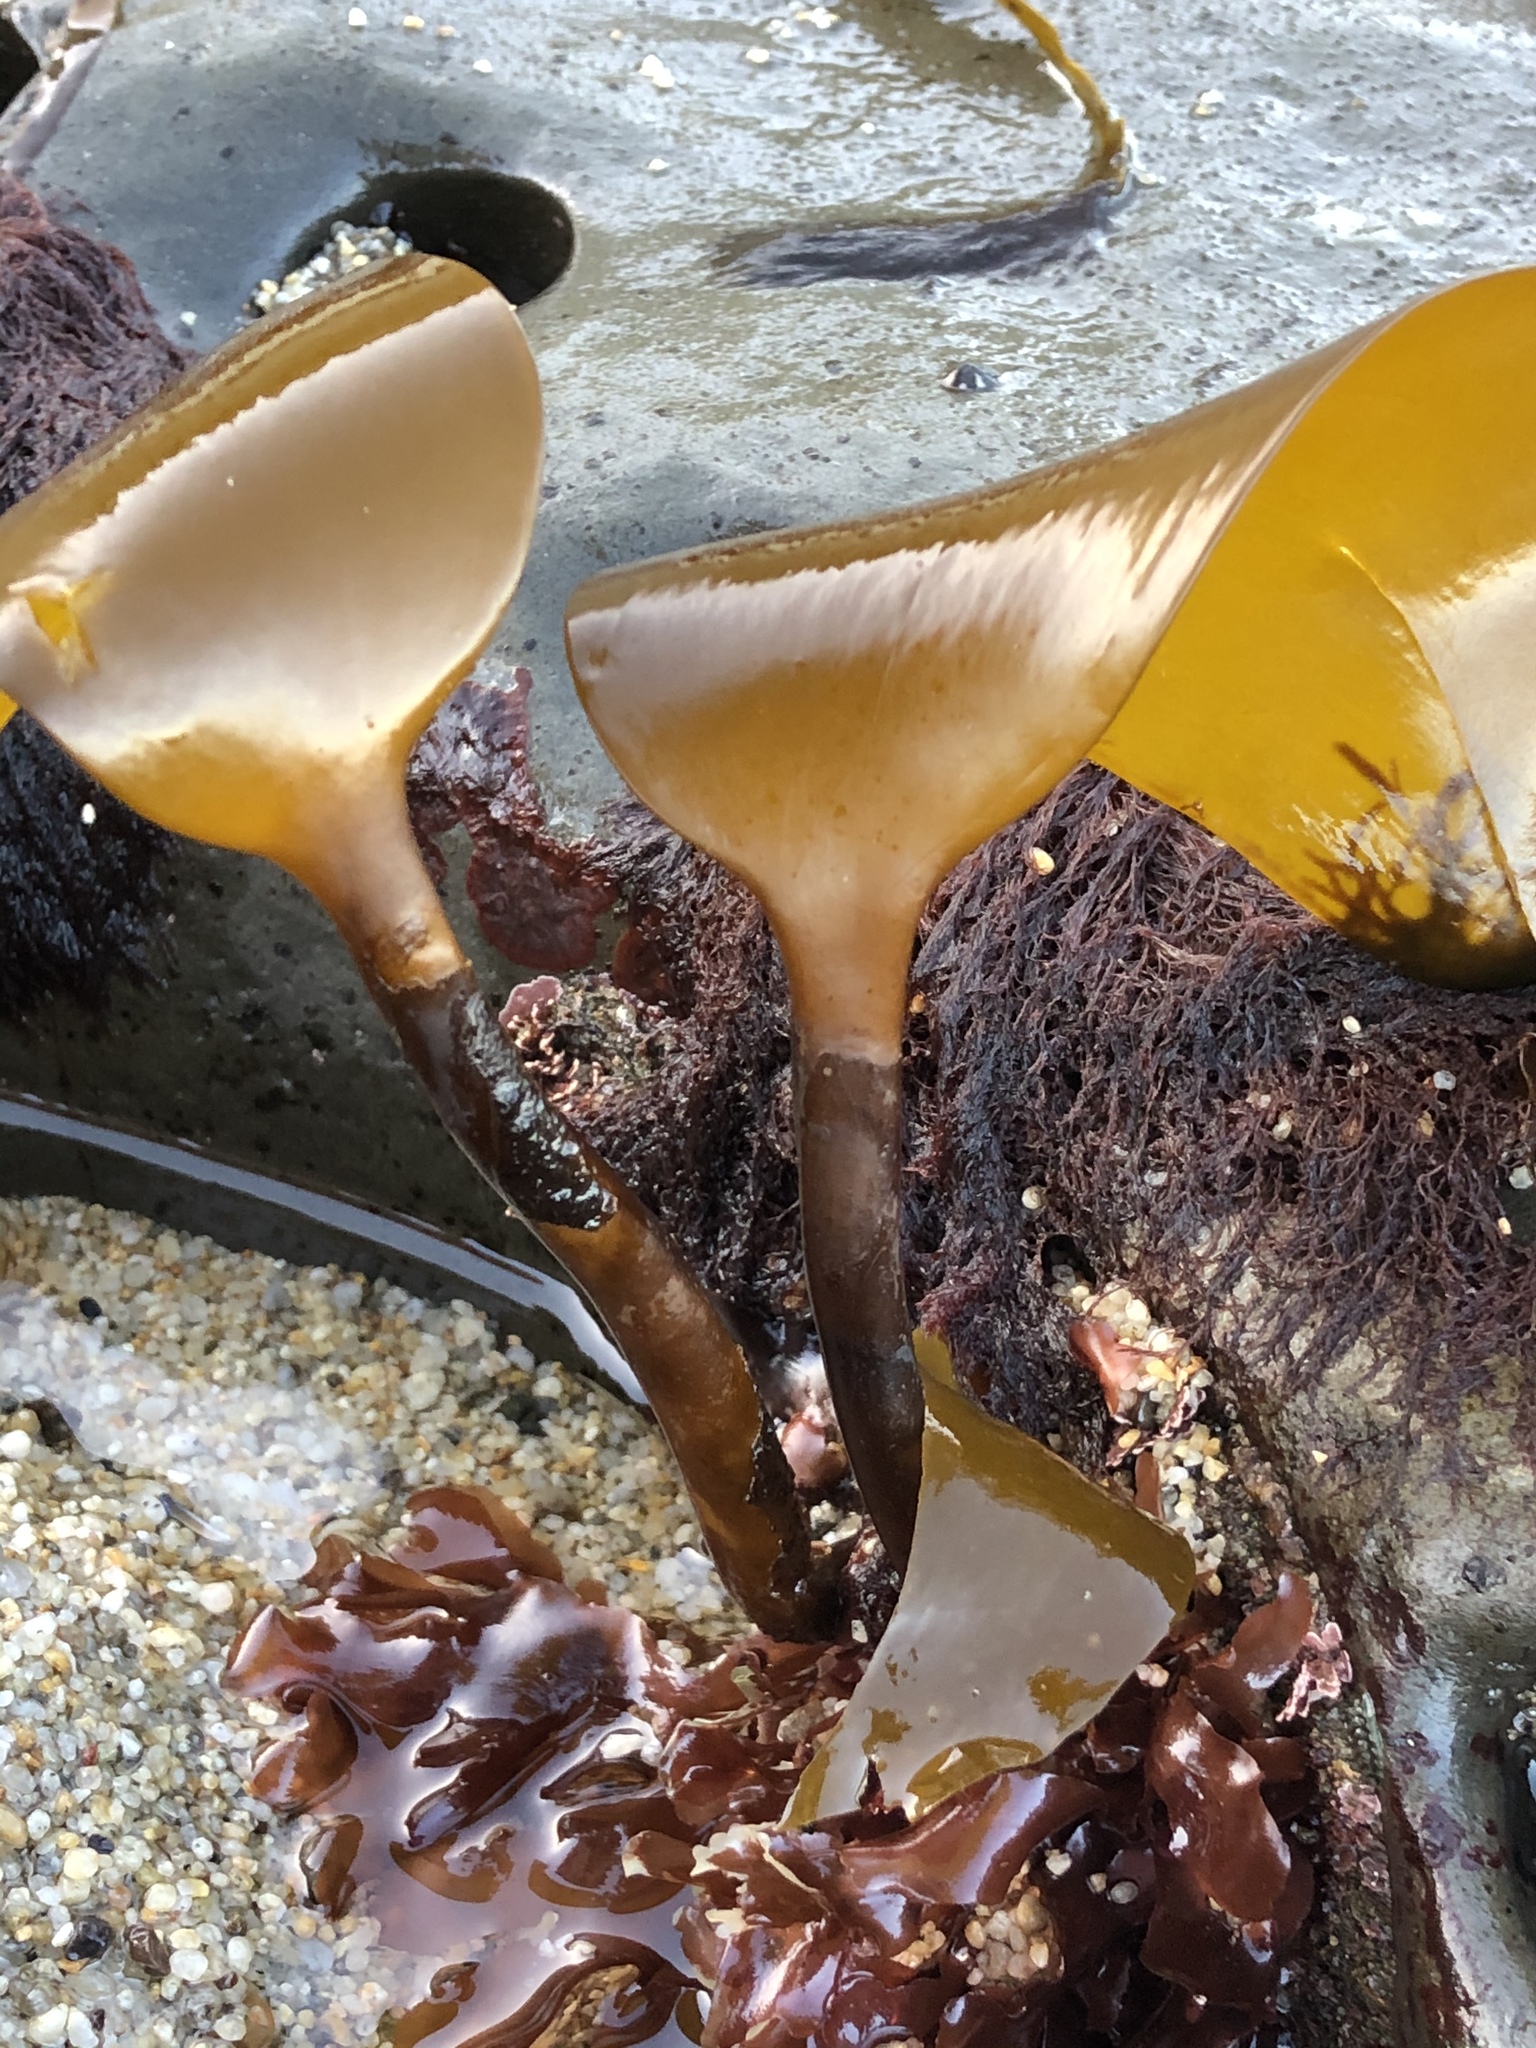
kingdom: Chromista
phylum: Ochrophyta
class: Phaeophyceae
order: Laminariales
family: Laminariaceae
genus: Laminaria
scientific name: Laminaria setchellii
